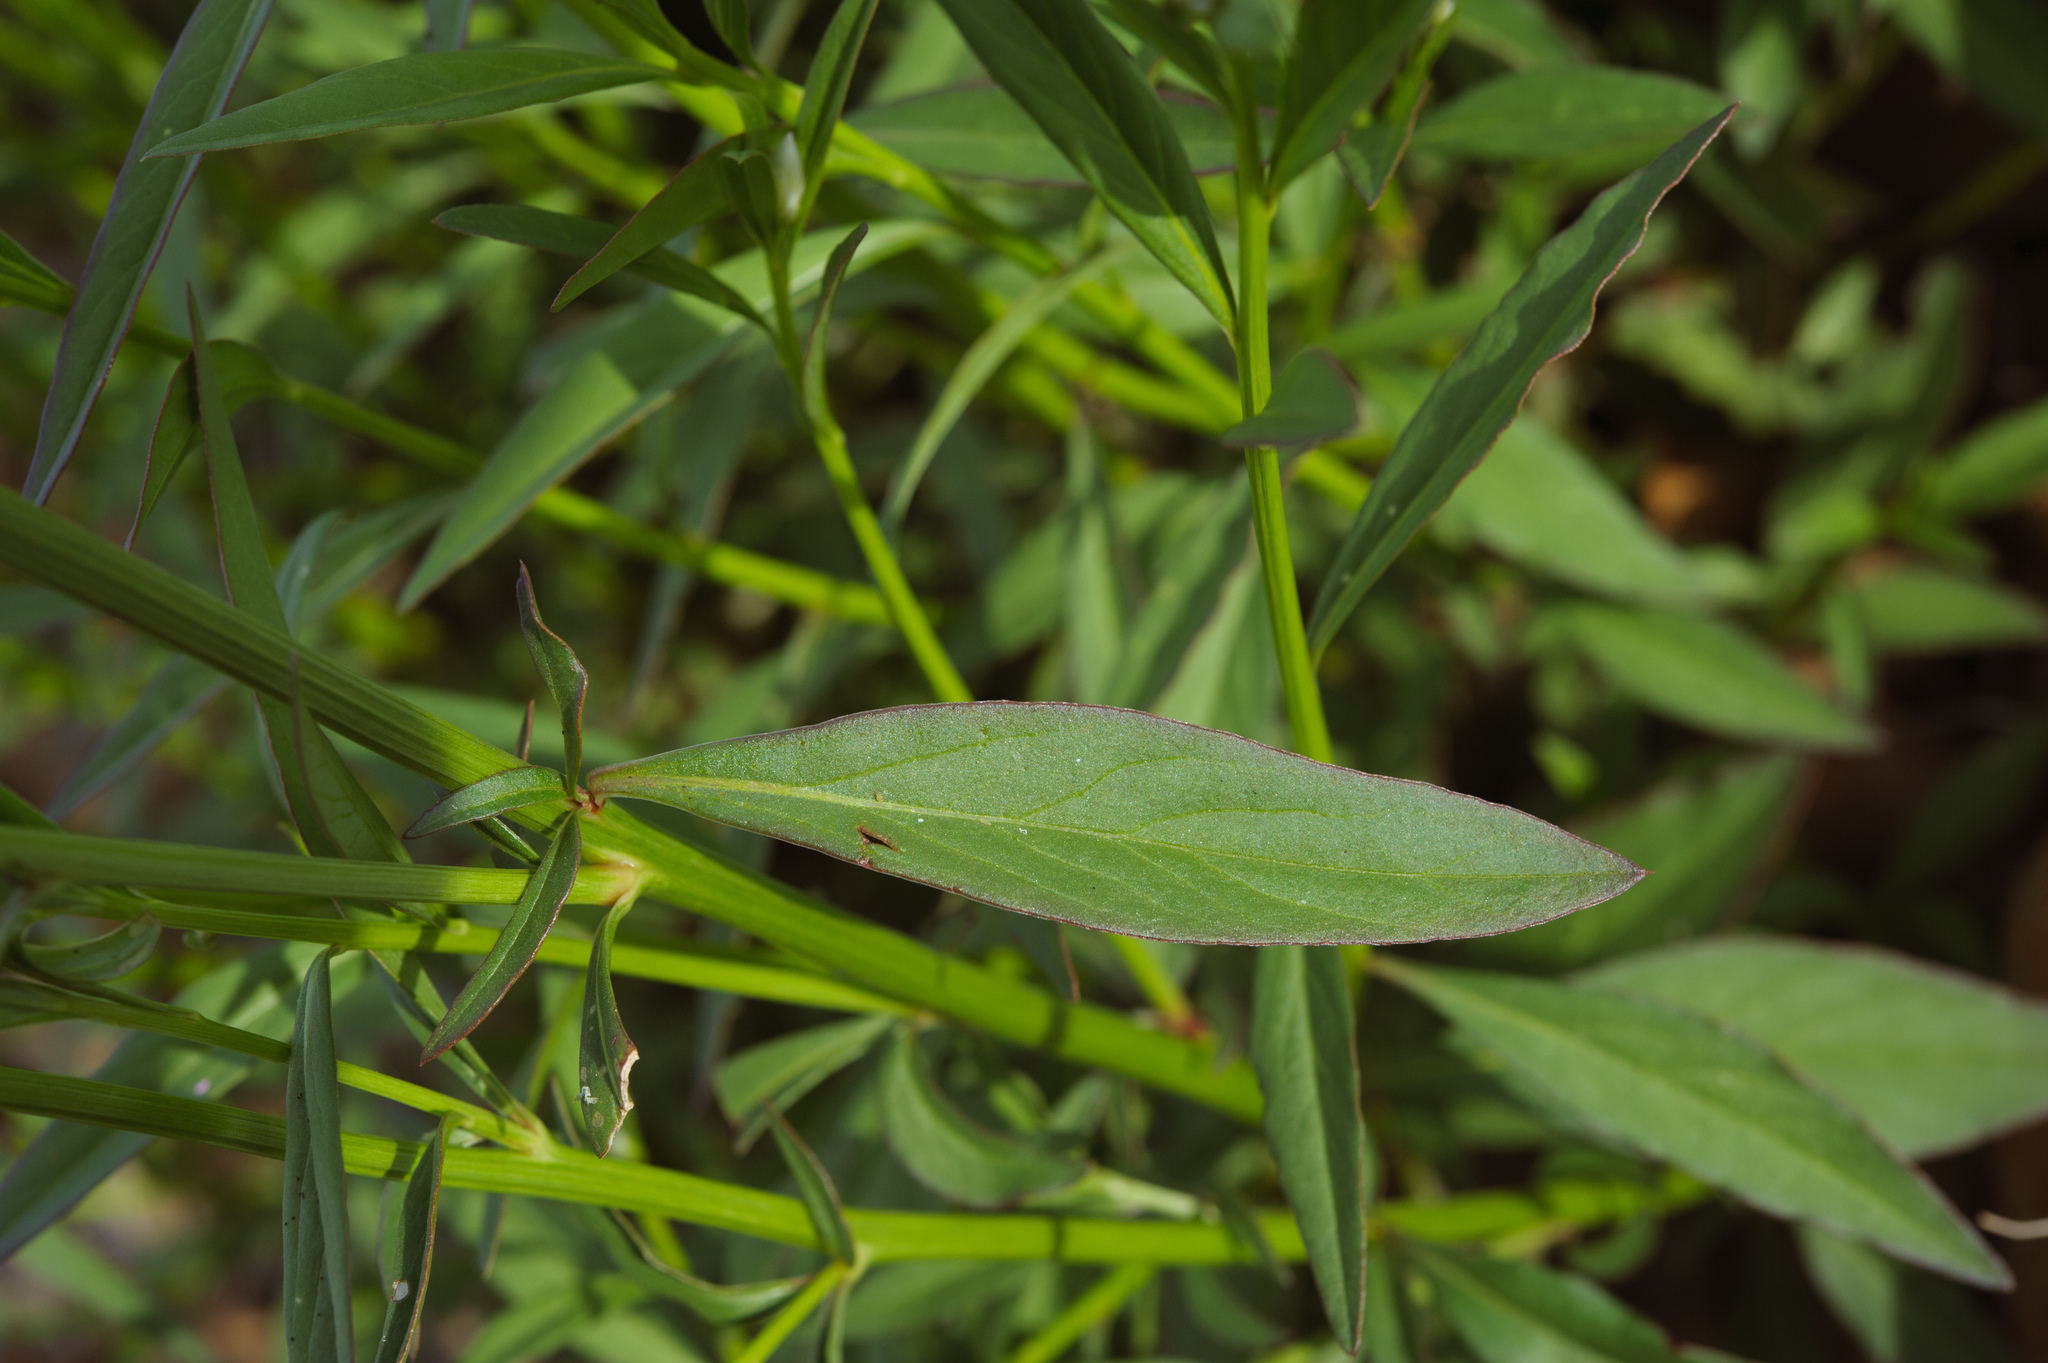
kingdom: Plantae
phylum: Tracheophyta
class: Magnoliopsida
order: Caryophyllales
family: Amaranthaceae
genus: Celosia
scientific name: Celosia argentea
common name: Feather cockscomb
